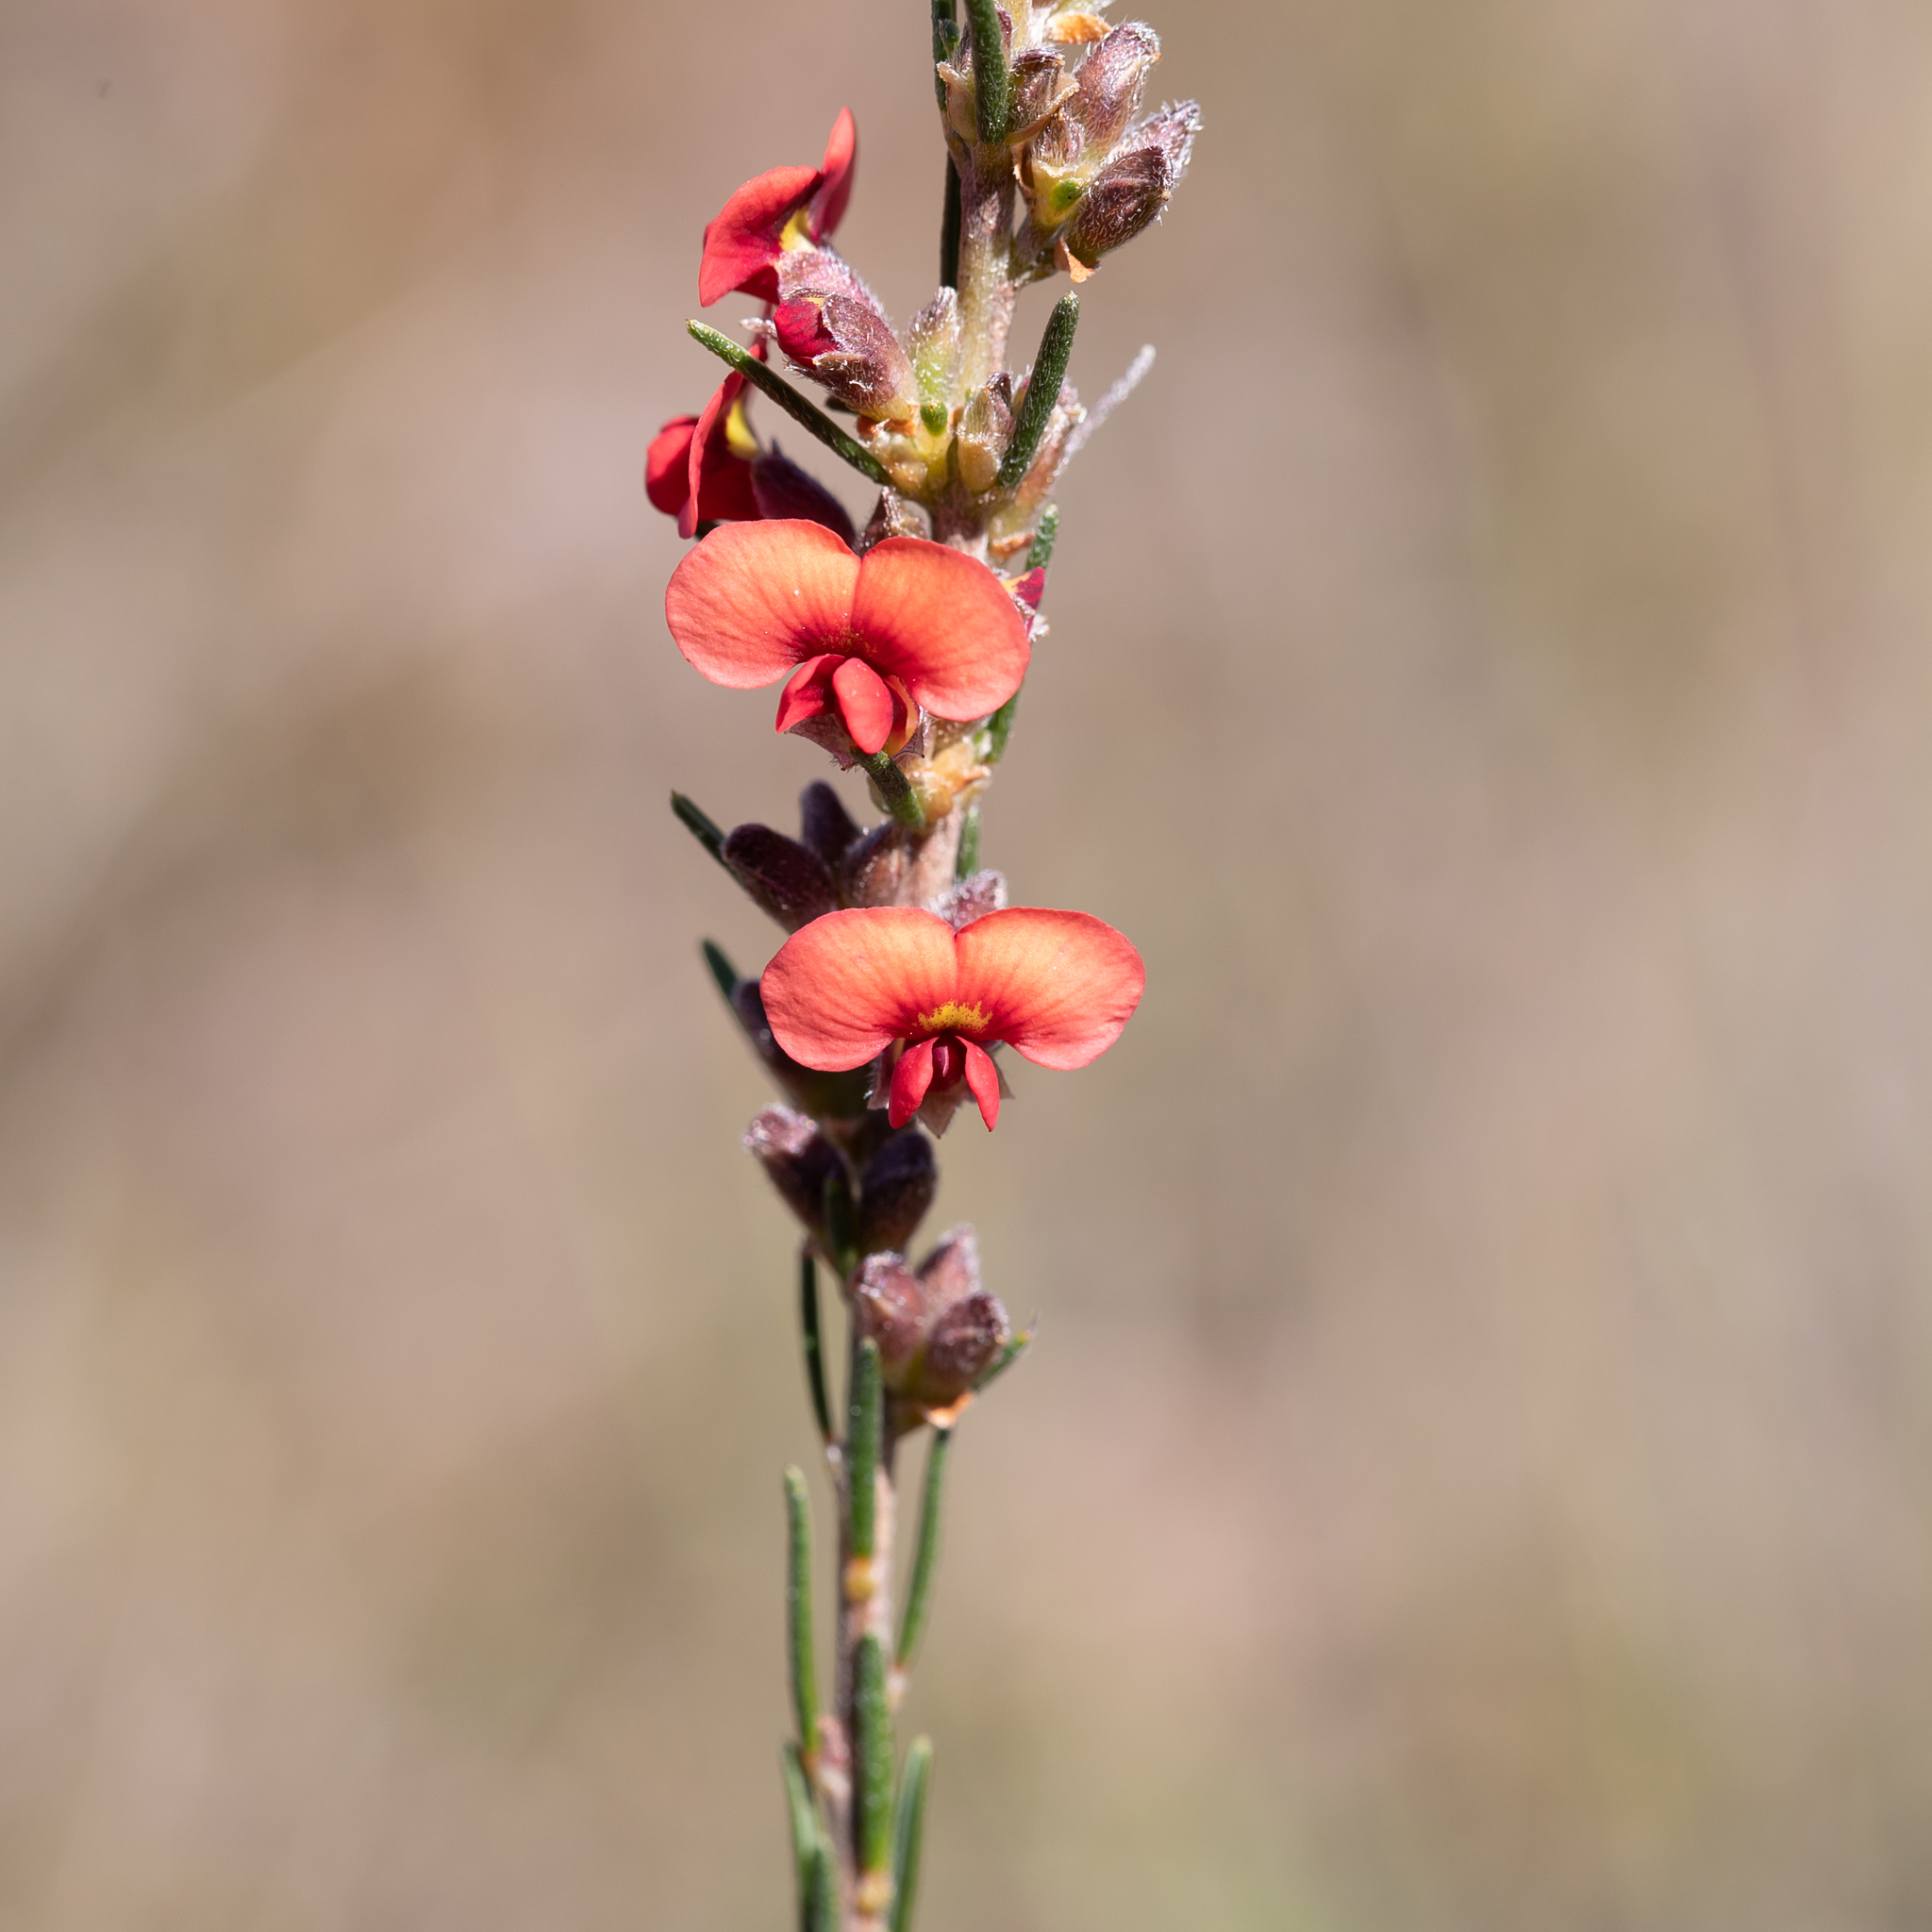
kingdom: Plantae
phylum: Tracheophyta
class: Magnoliopsida
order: Fabales
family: Fabaceae
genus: Dillwynia
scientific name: Dillwynia sericea
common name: Showy parrot-pea
